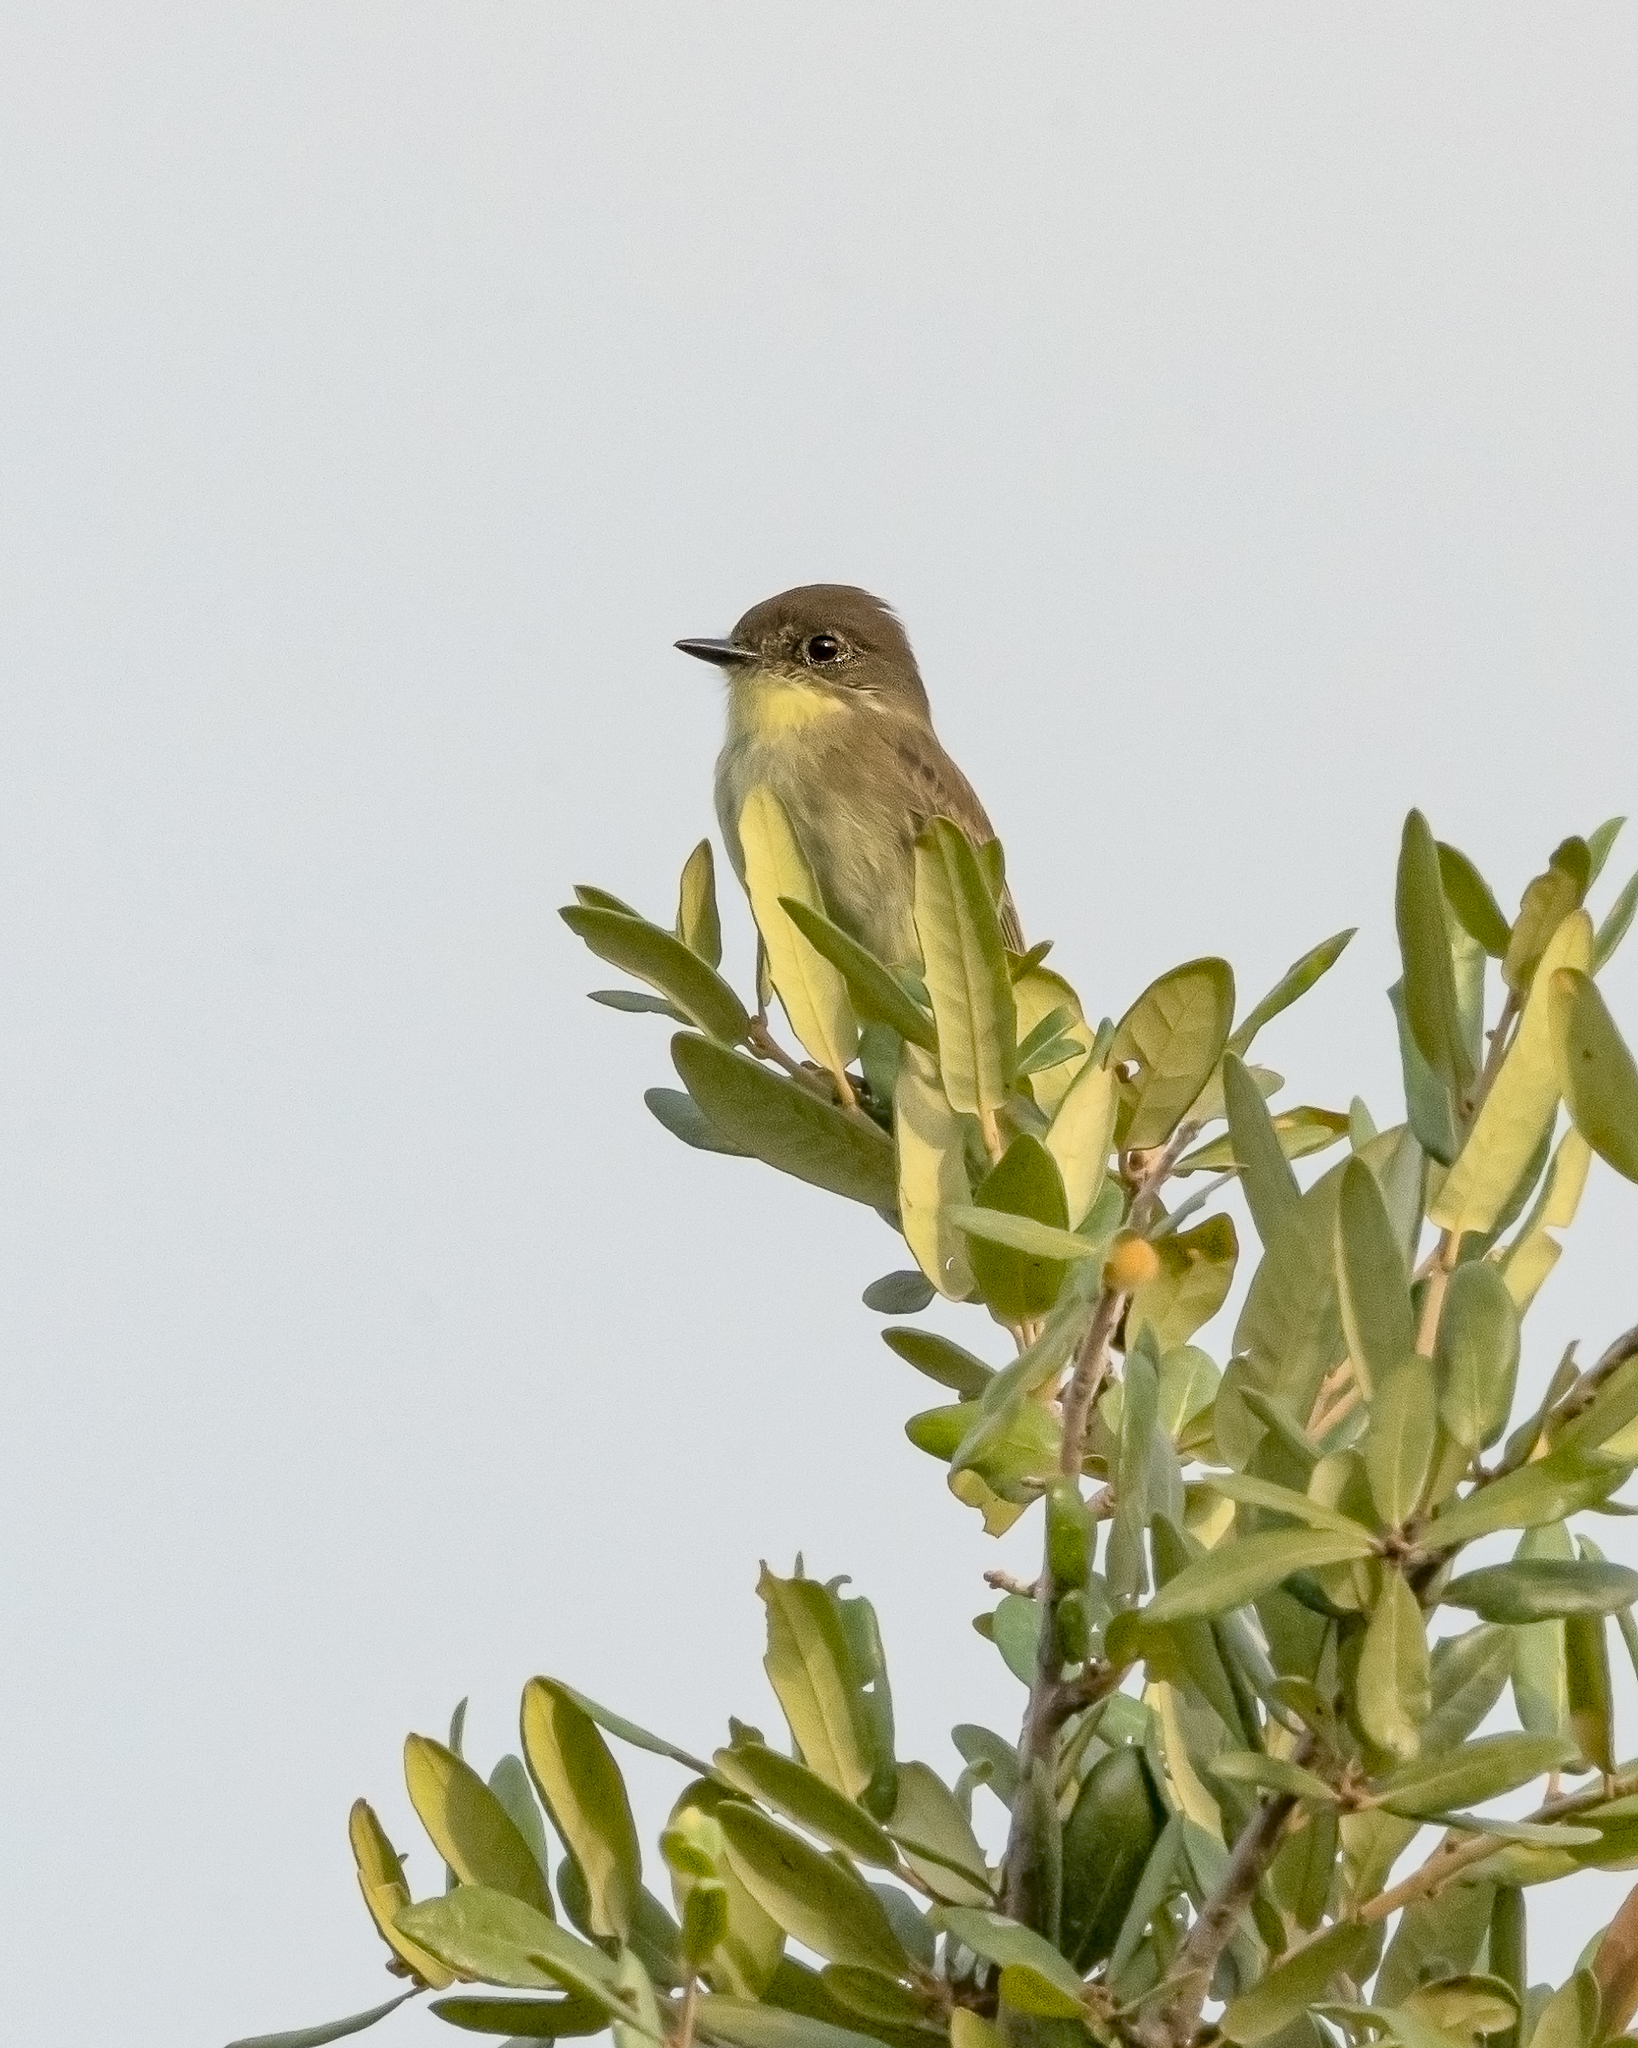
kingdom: Animalia
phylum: Chordata
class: Aves
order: Passeriformes
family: Tyrannidae
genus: Sayornis
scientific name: Sayornis phoebe
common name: Eastern phoebe
